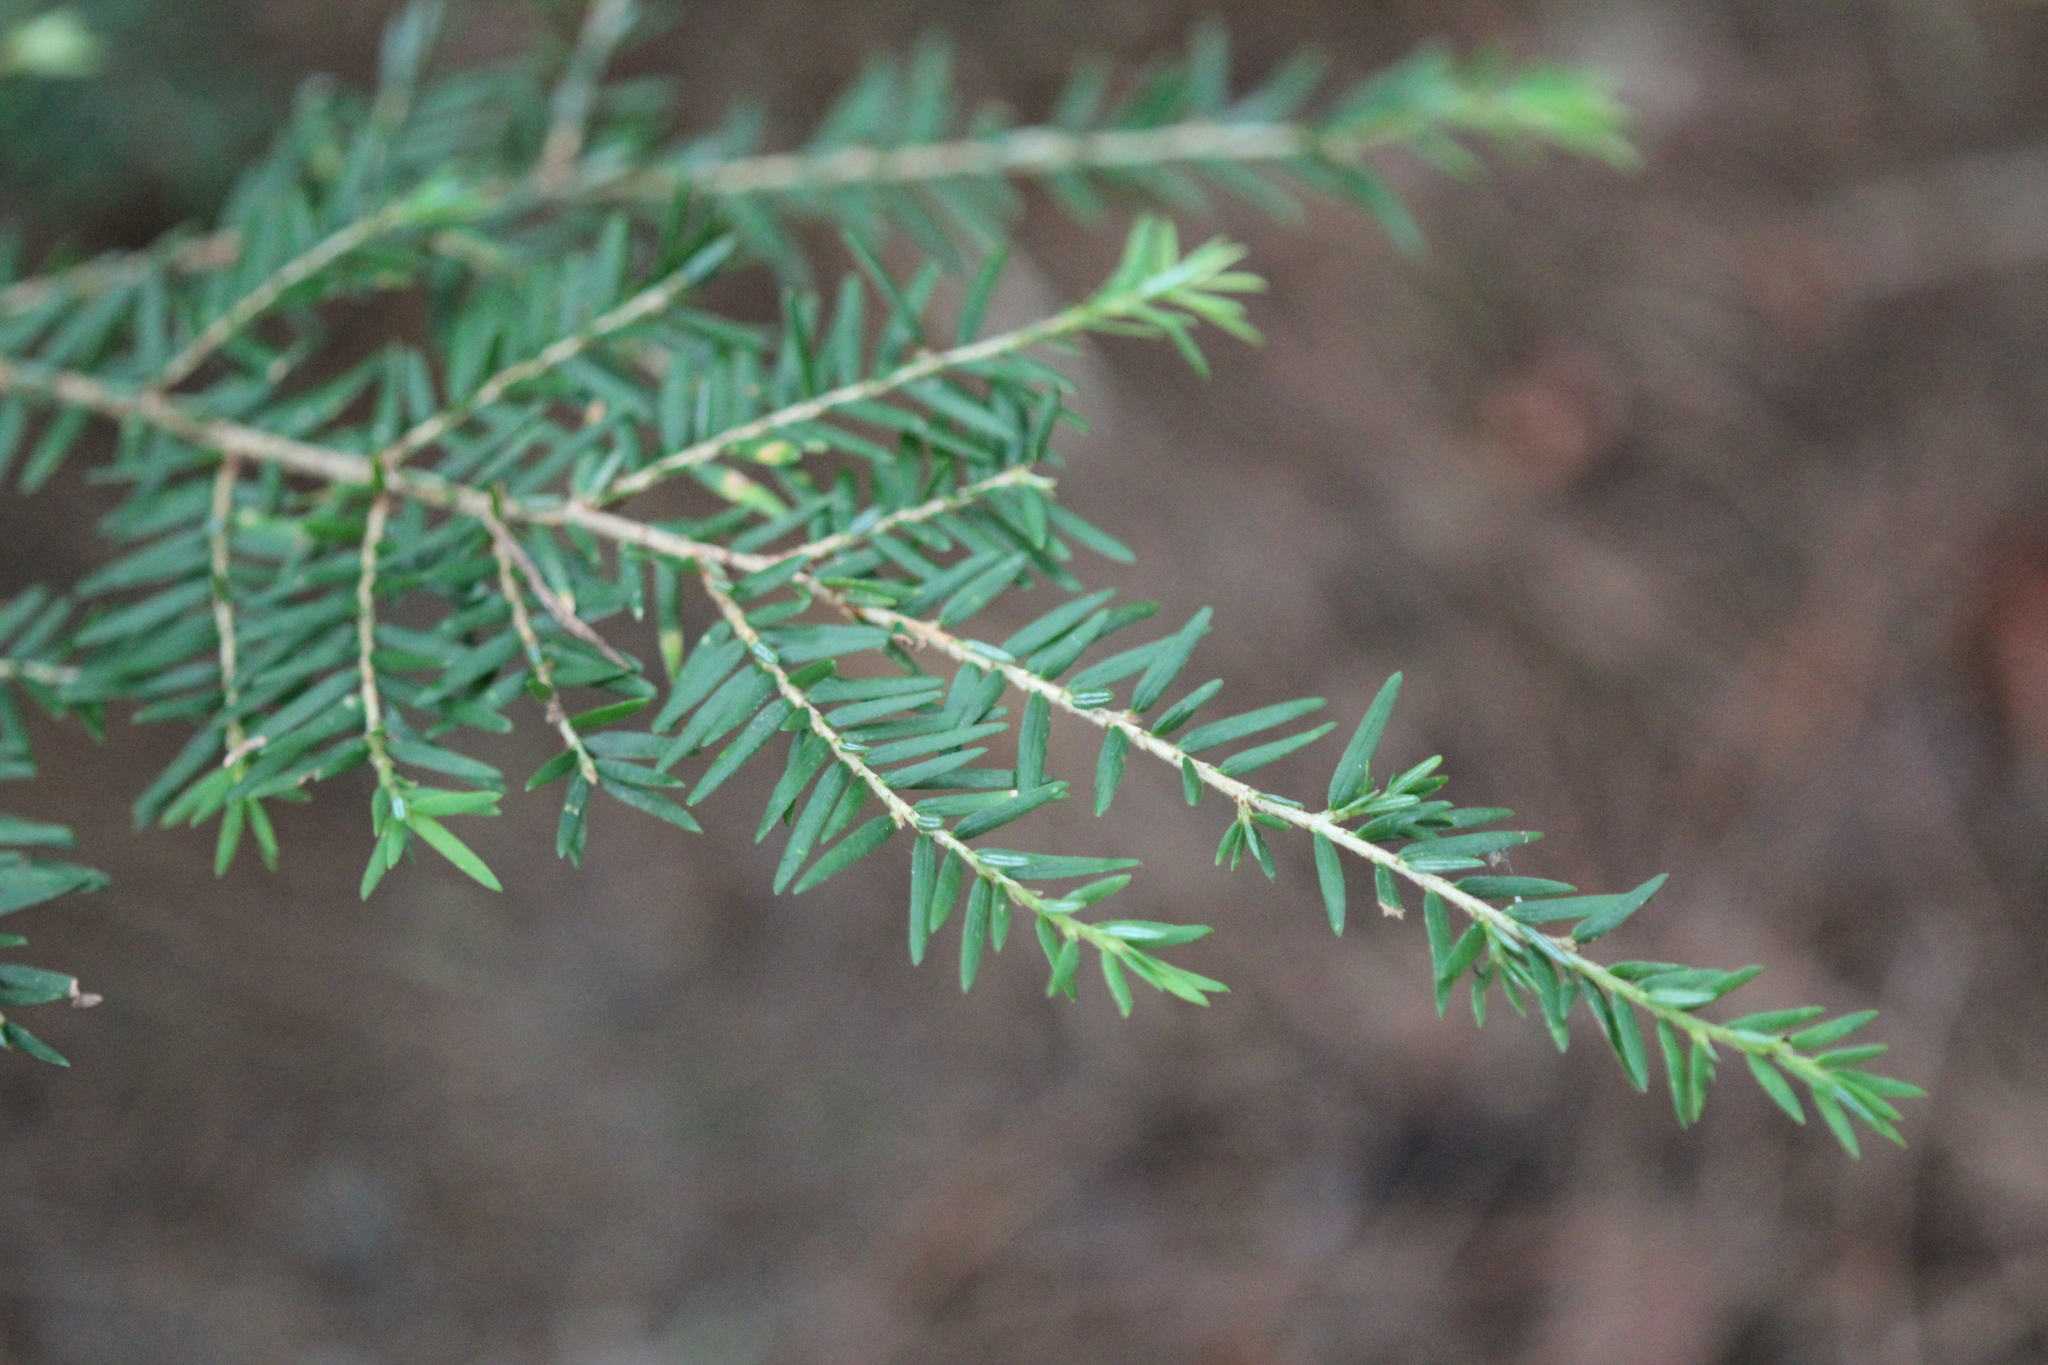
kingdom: Plantae
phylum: Tracheophyta
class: Pinopsida
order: Pinales
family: Pinaceae
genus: Tsuga
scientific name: Tsuga canadensis
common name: Eastern hemlock
